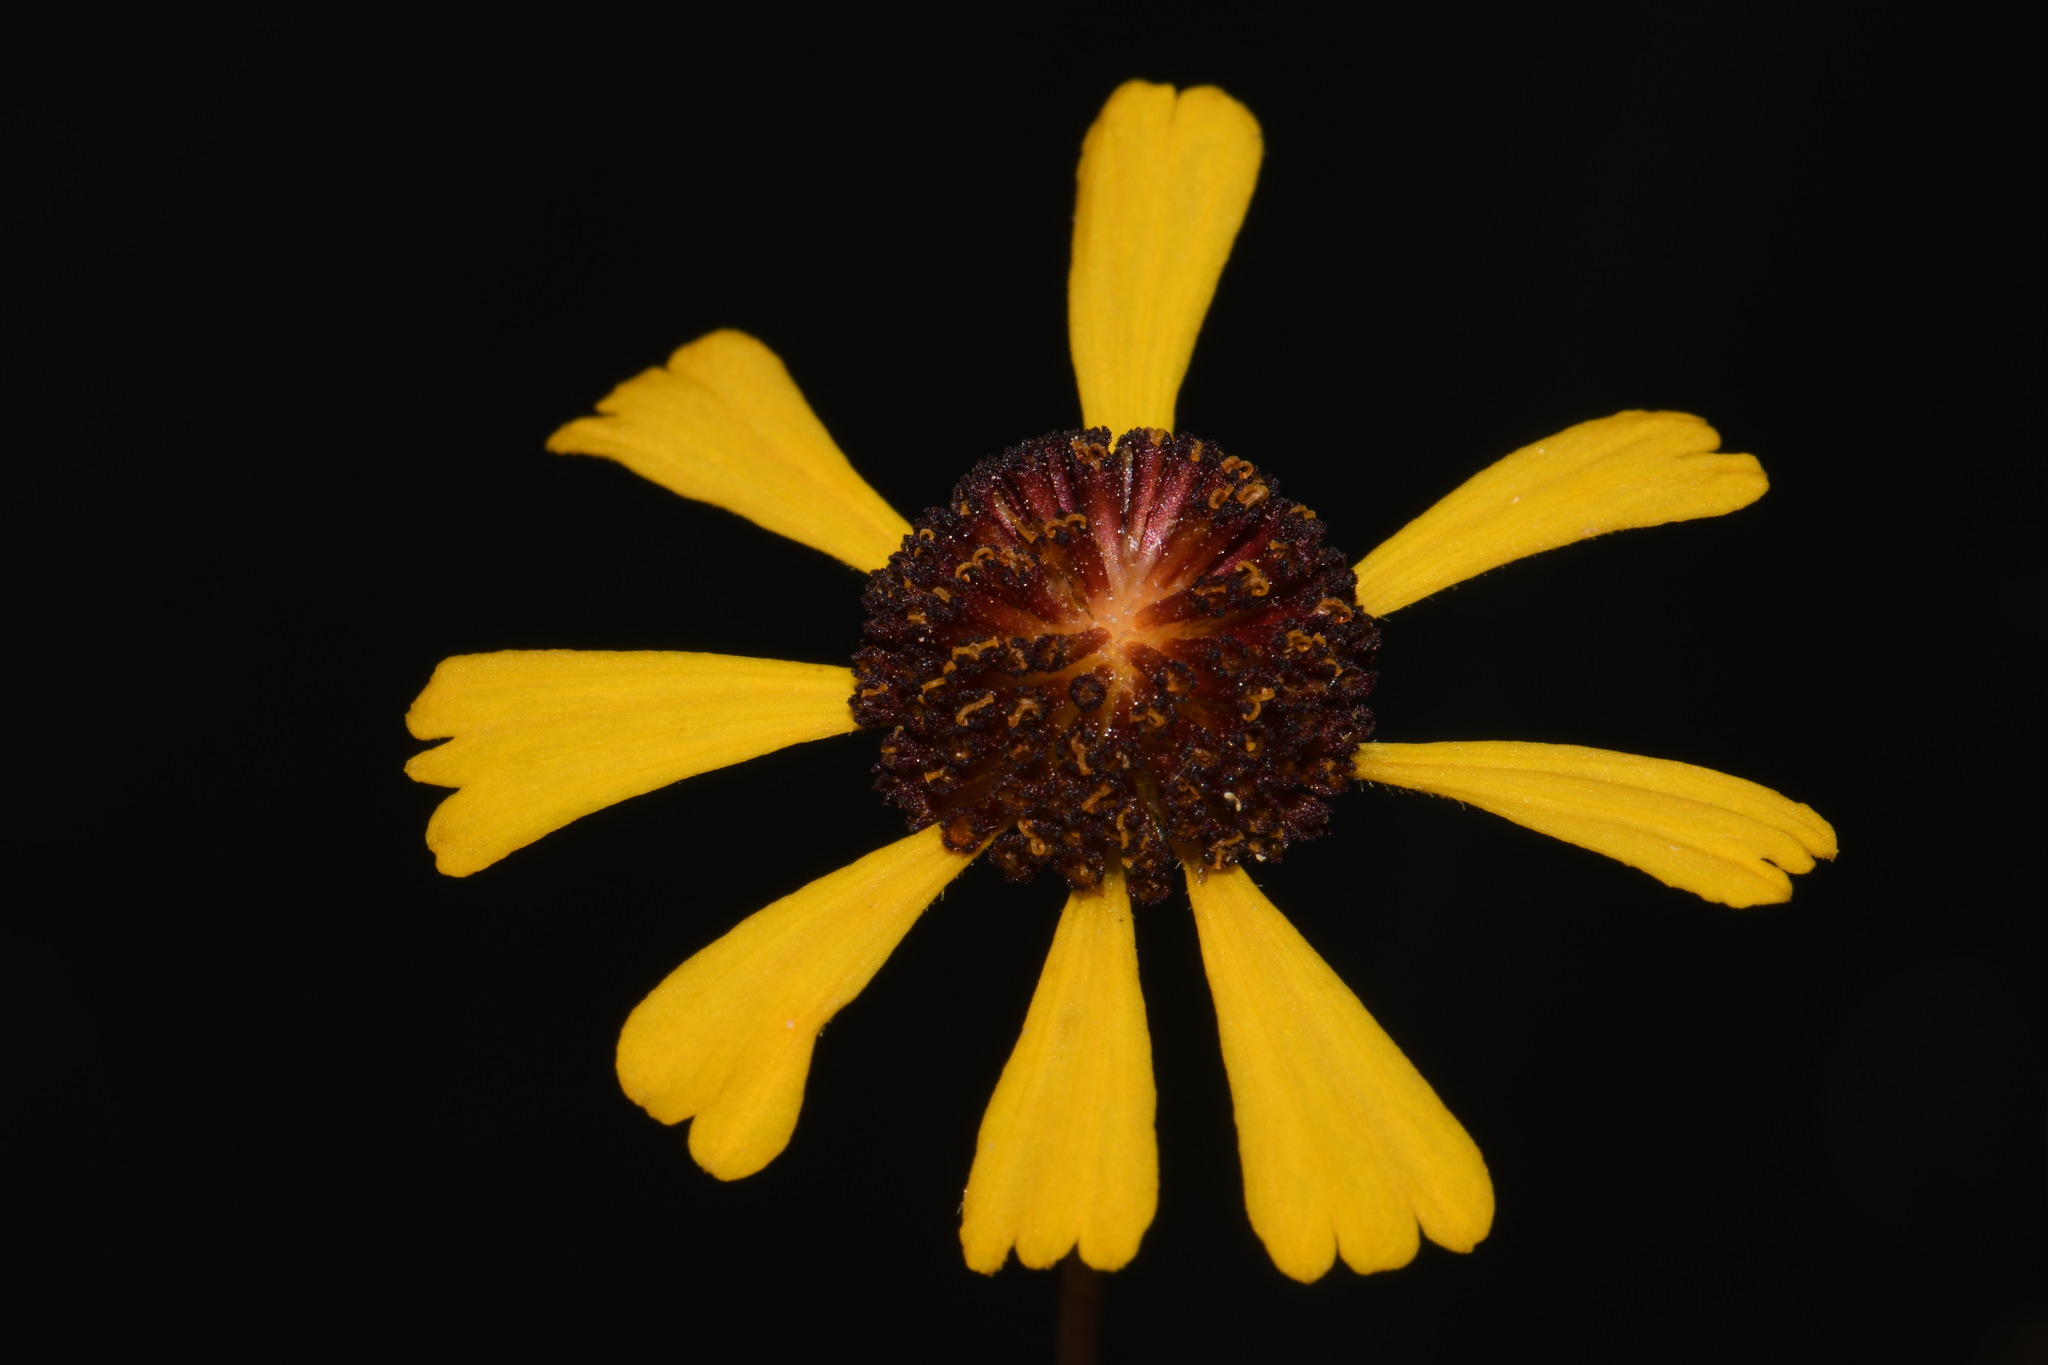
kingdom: Plantae
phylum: Tracheophyta
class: Magnoliopsida
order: Asterales
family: Asteraceae
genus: Helenium
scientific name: Helenium brevifolium
